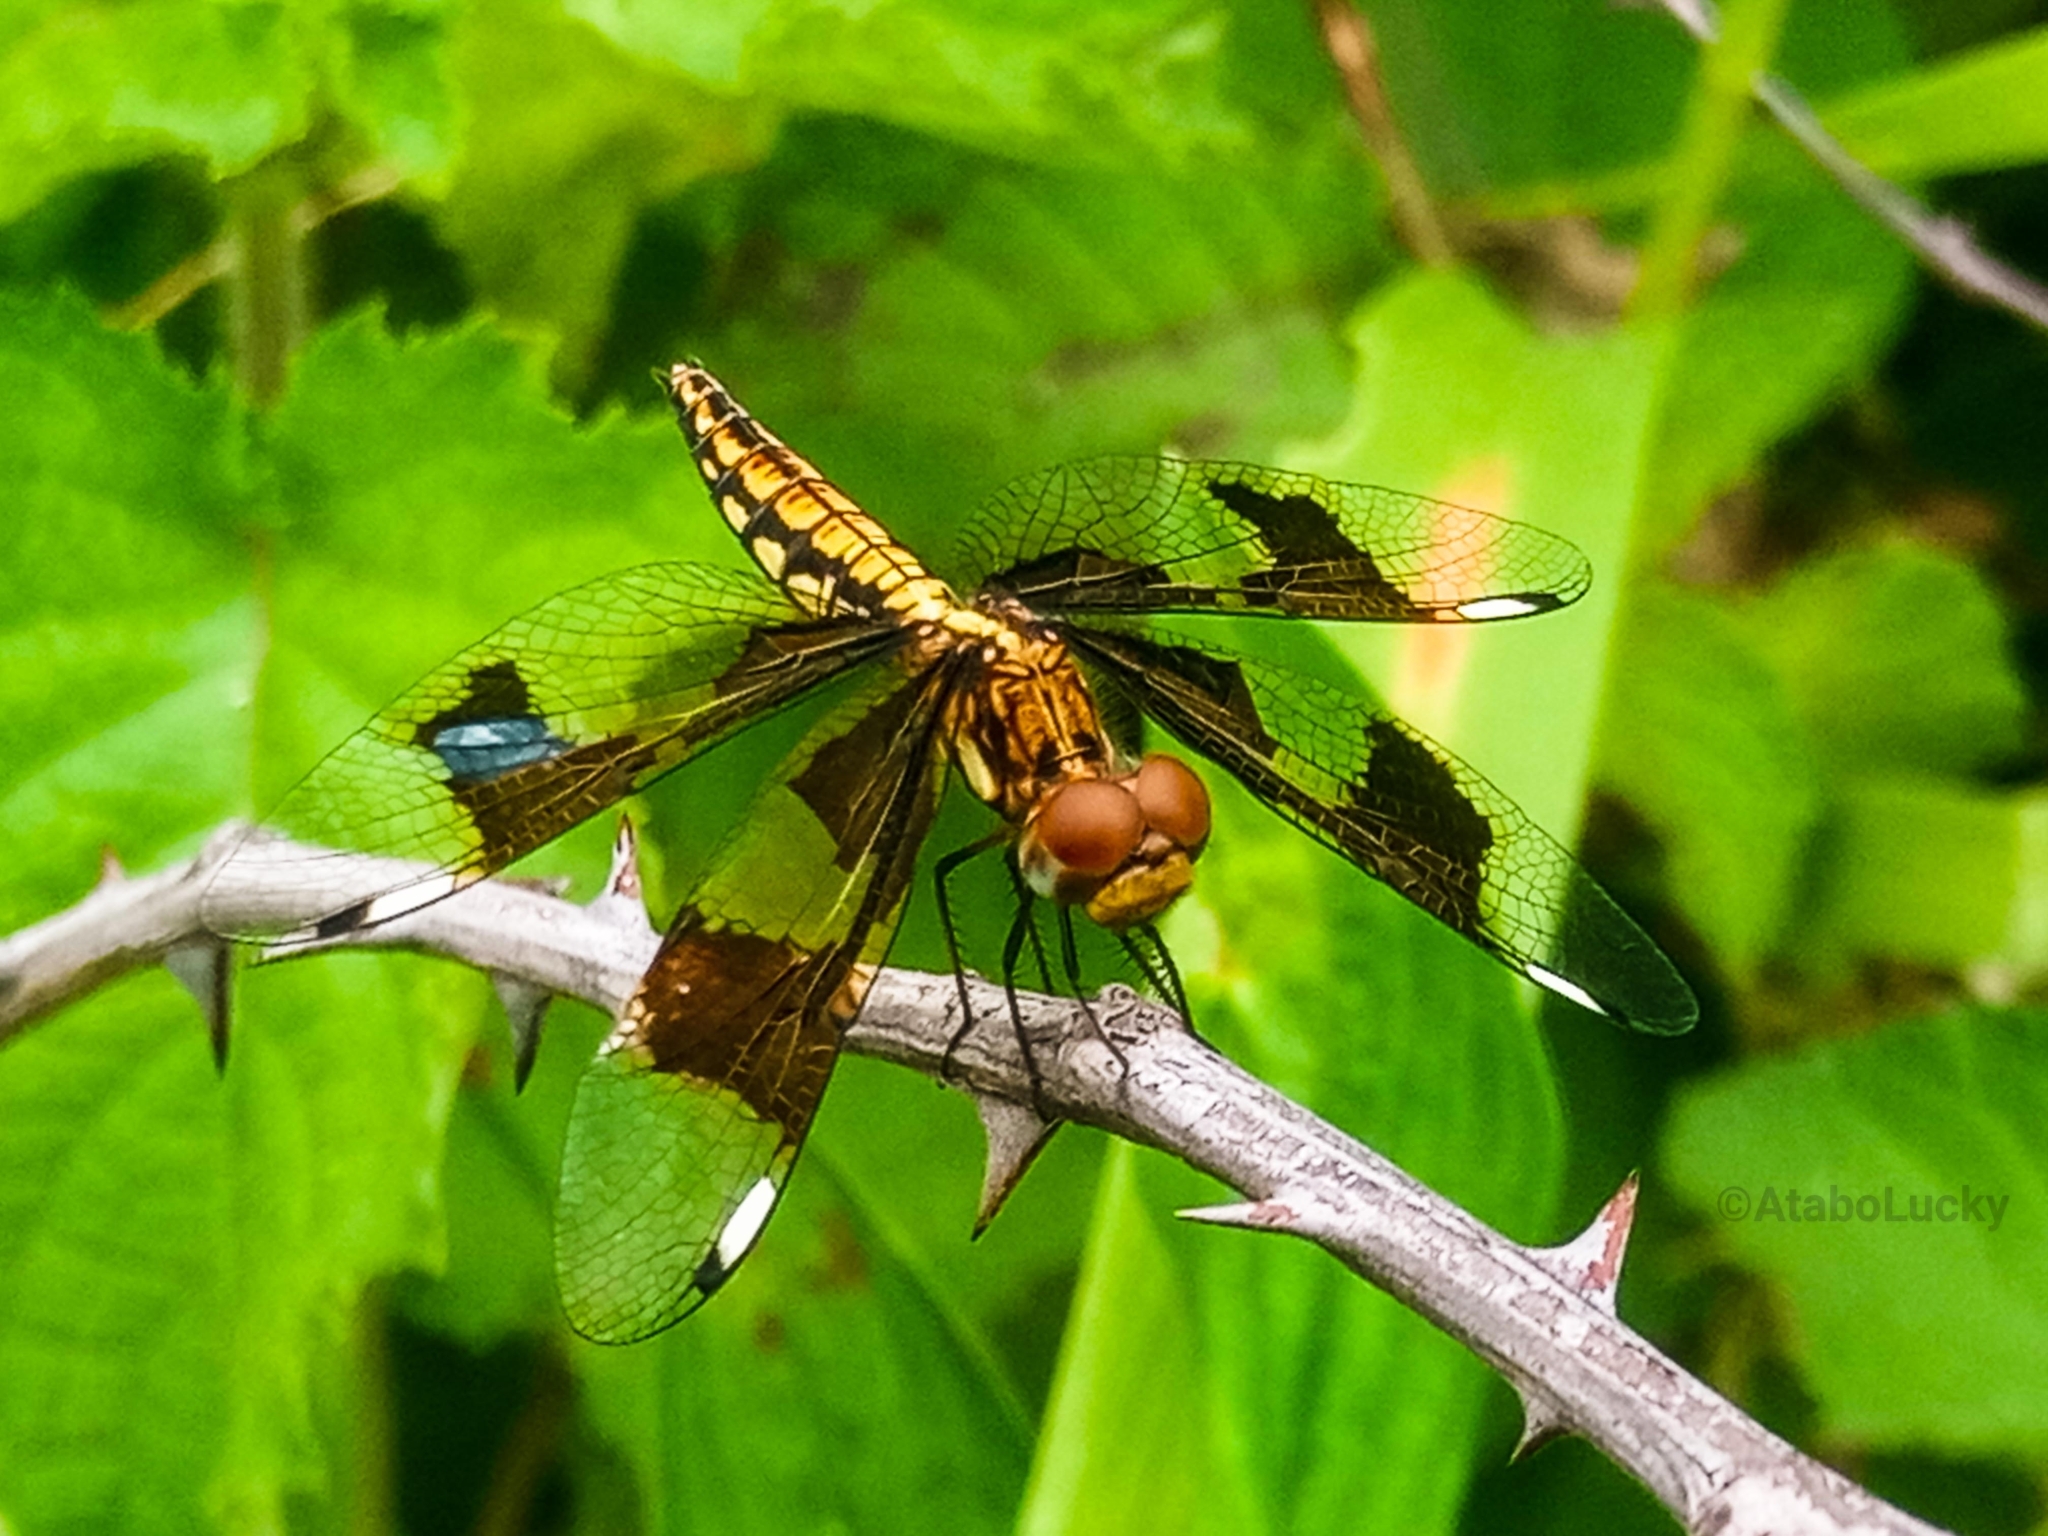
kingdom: Animalia
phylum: Arthropoda
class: Insecta
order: Odonata
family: Libellulidae
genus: Palpopleura
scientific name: Palpopleura lucia
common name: Lucia widow
